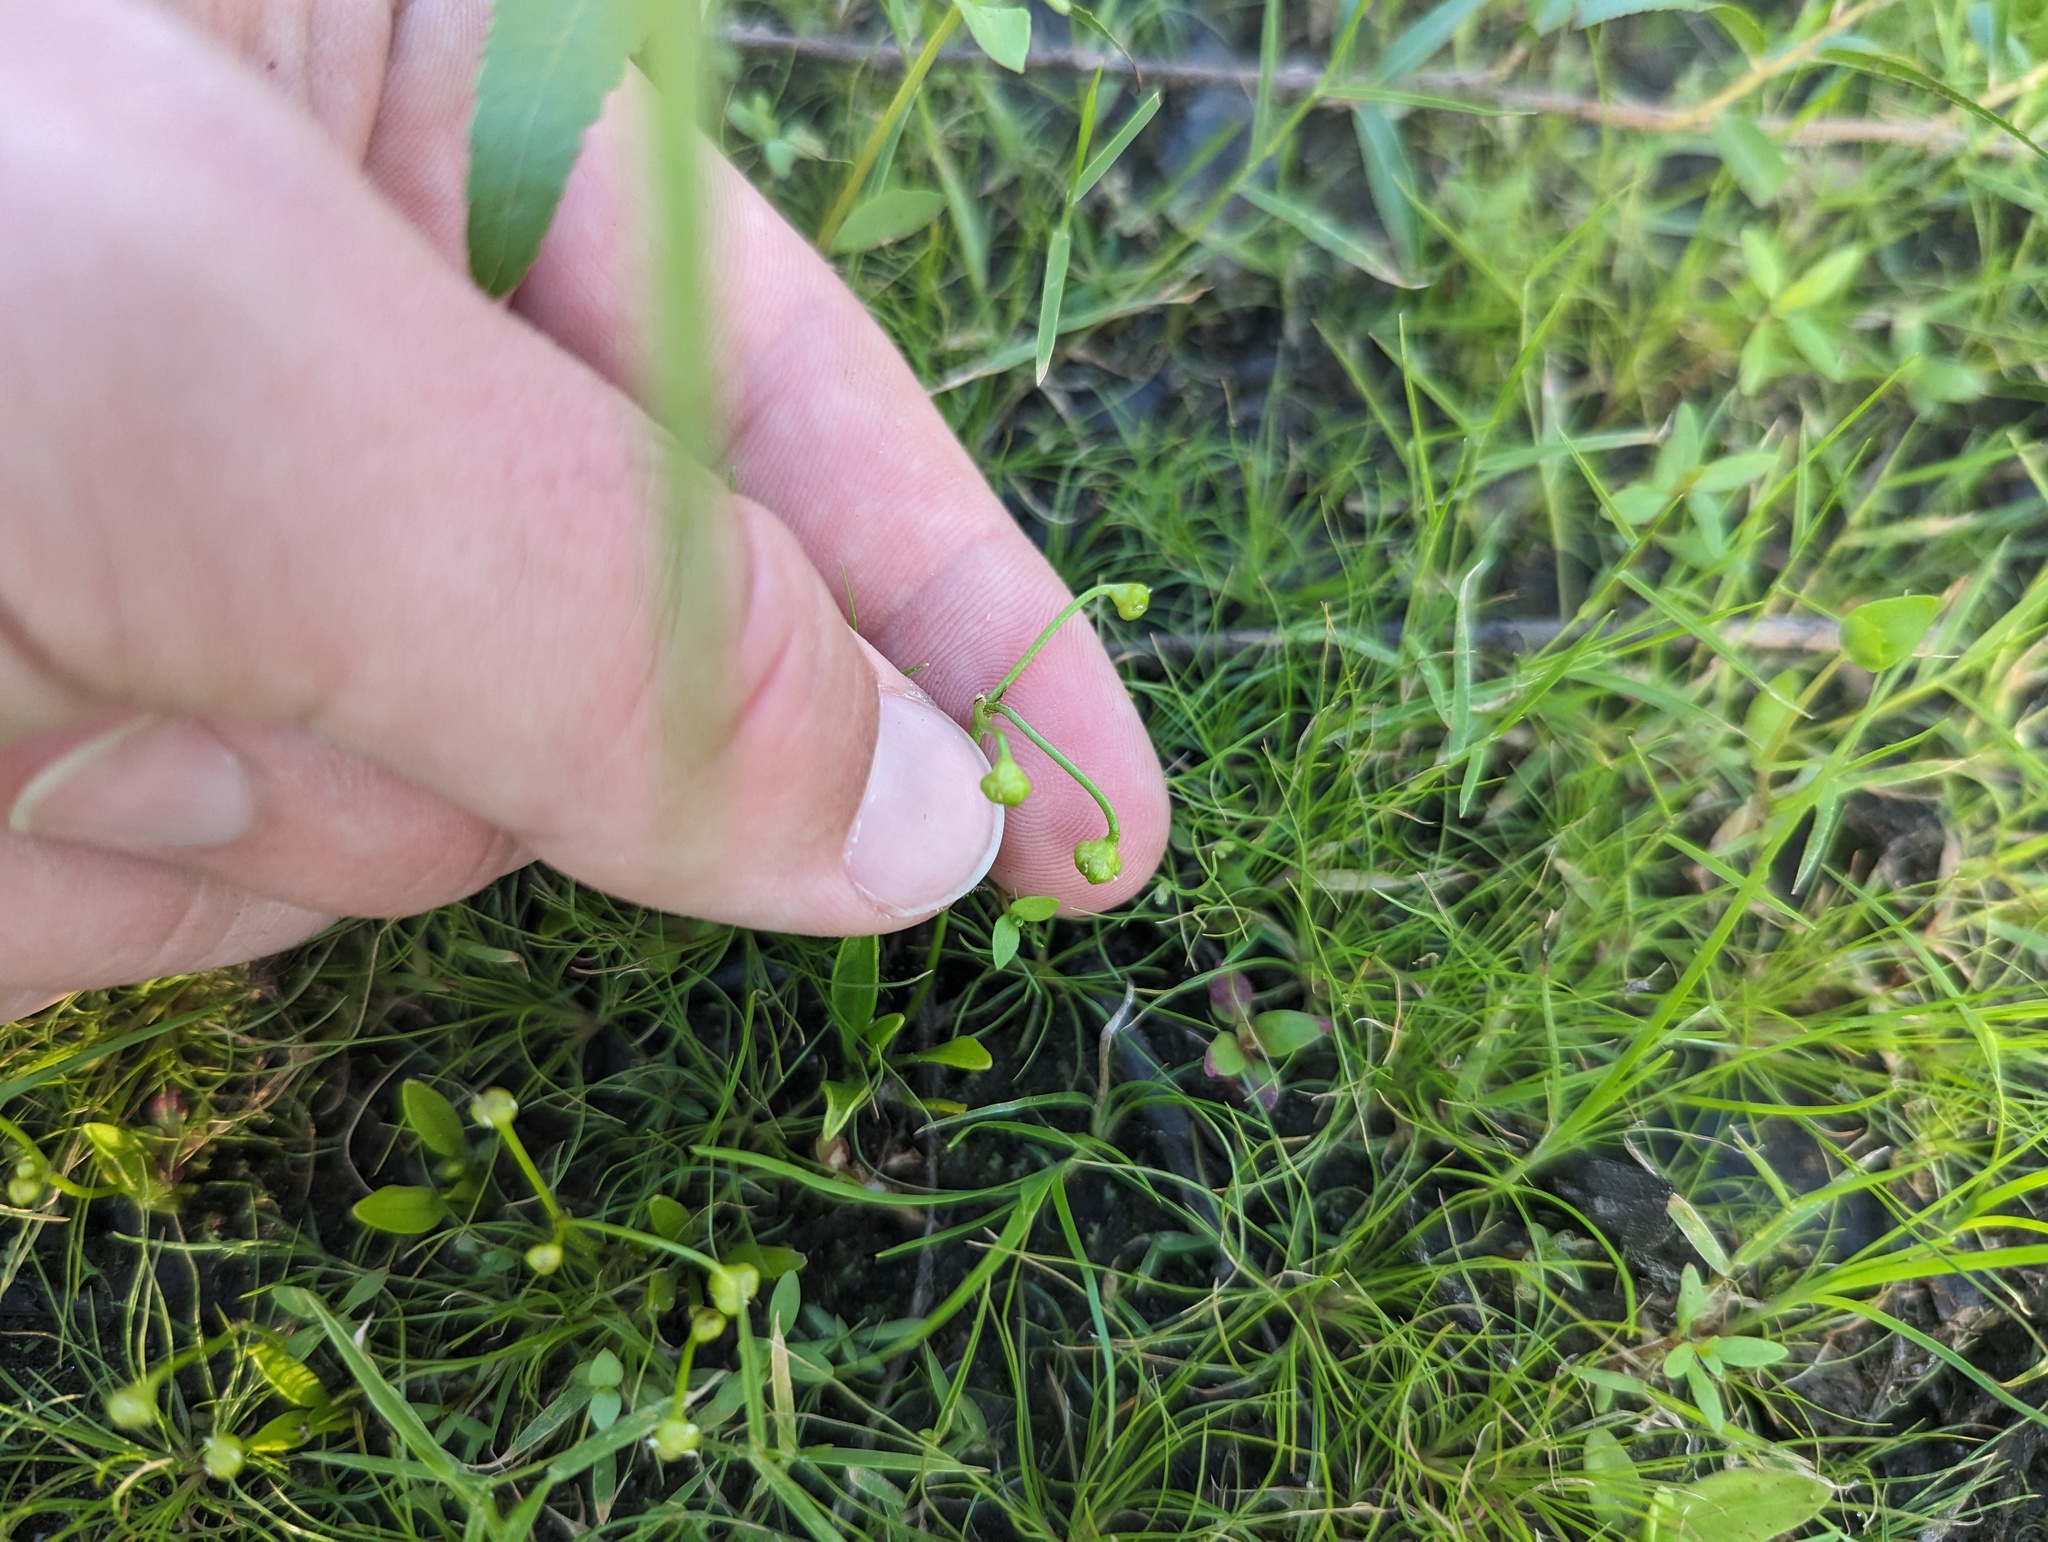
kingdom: Plantae
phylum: Tracheophyta
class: Liliopsida
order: Alismatales
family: Alismataceae
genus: Helanthium
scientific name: Helanthium tenellum
